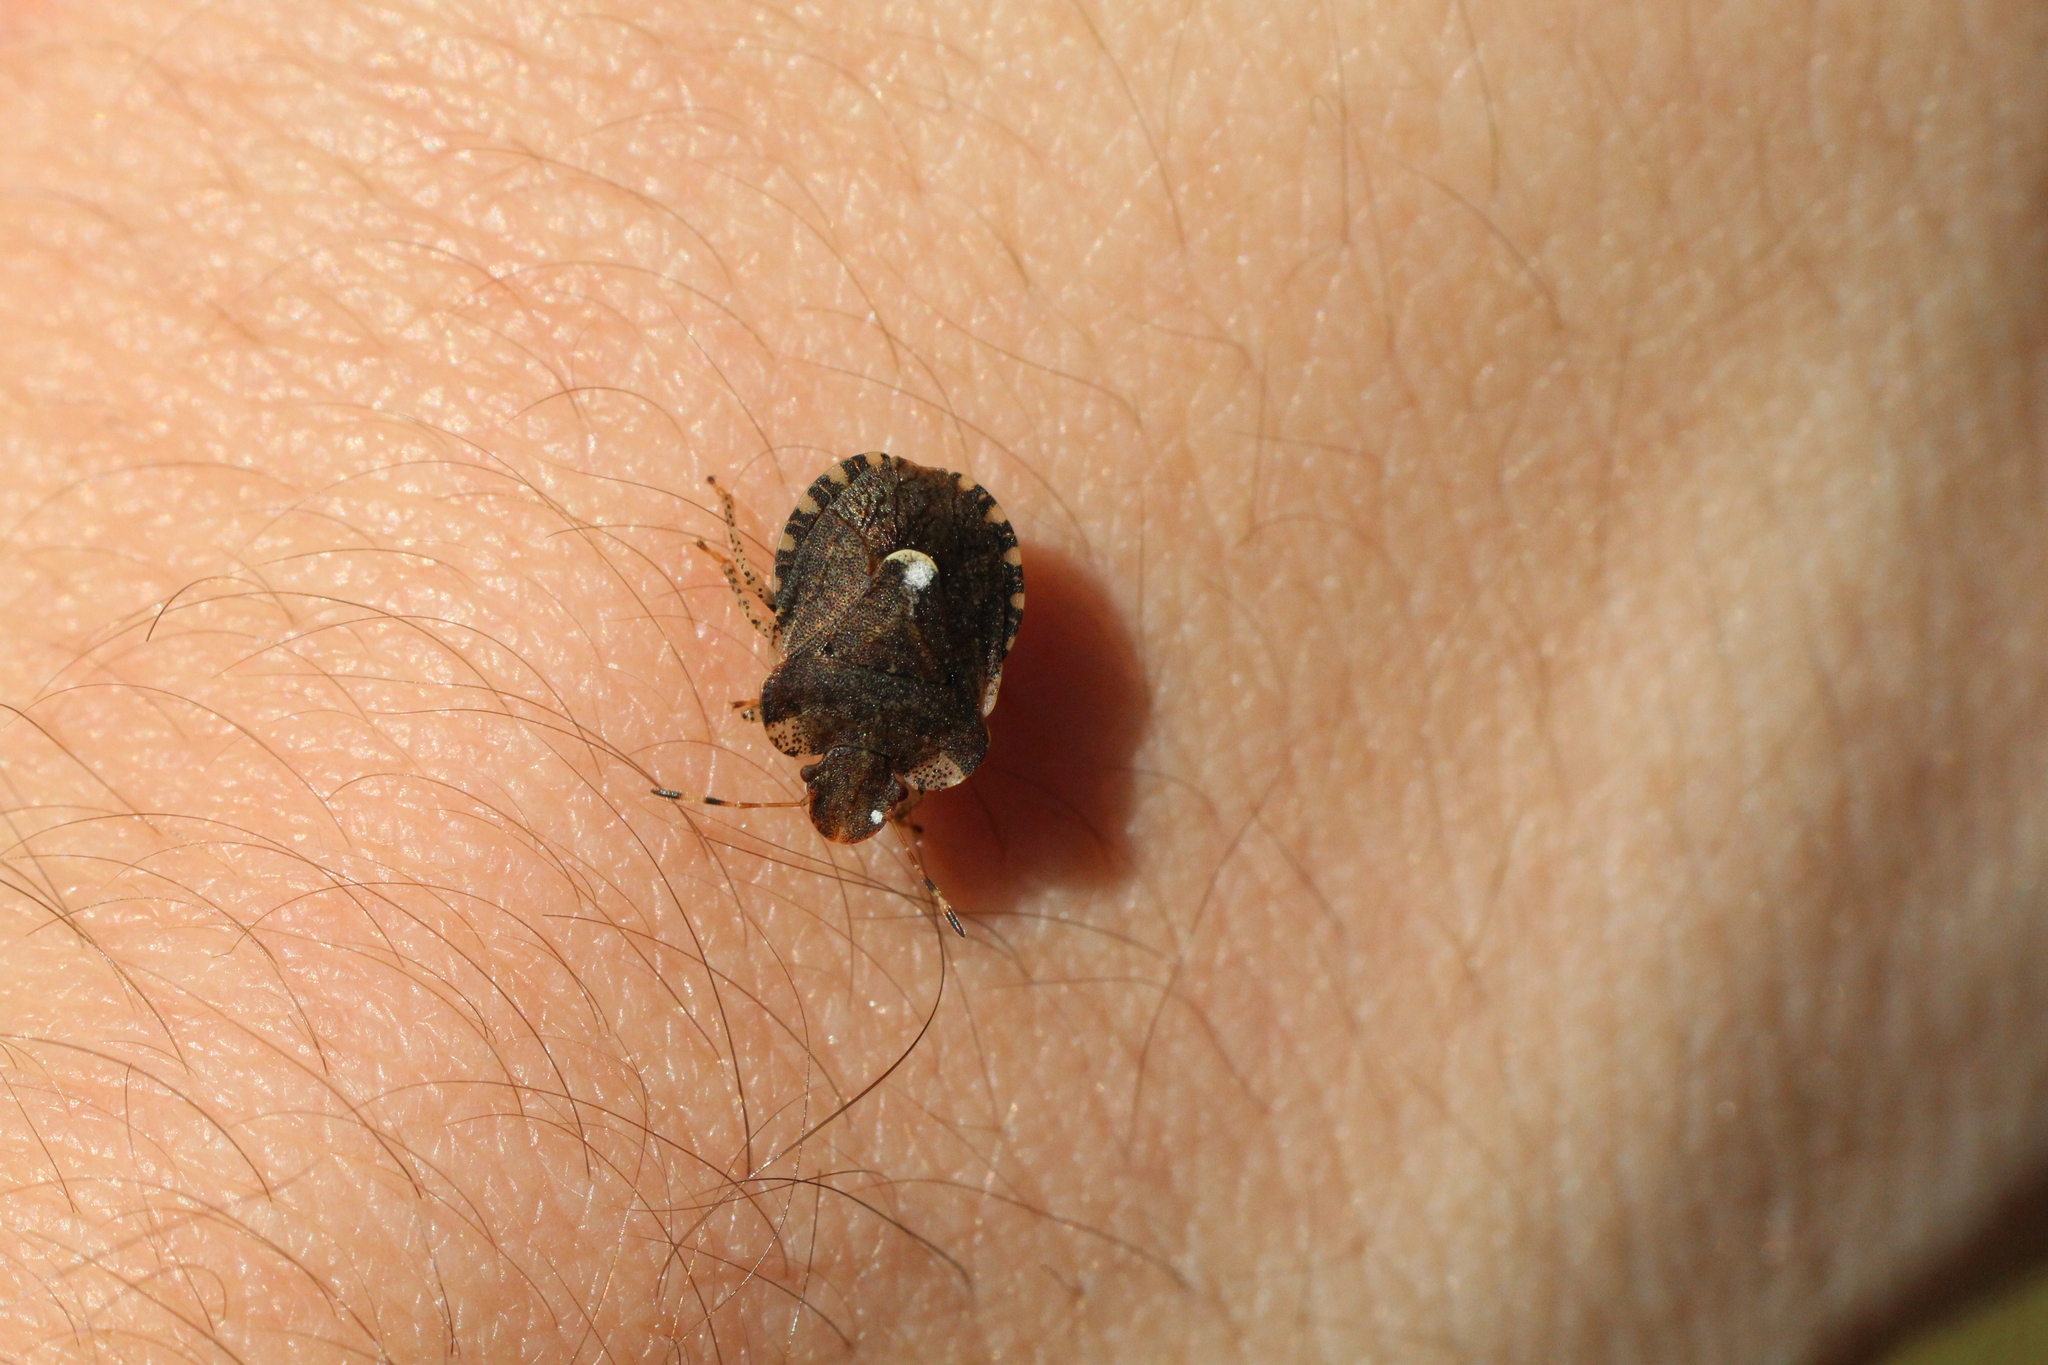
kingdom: Animalia
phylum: Arthropoda
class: Insecta
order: Hemiptera
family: Pentatomidae
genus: Dyroderes
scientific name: Dyroderes umbraculatus
